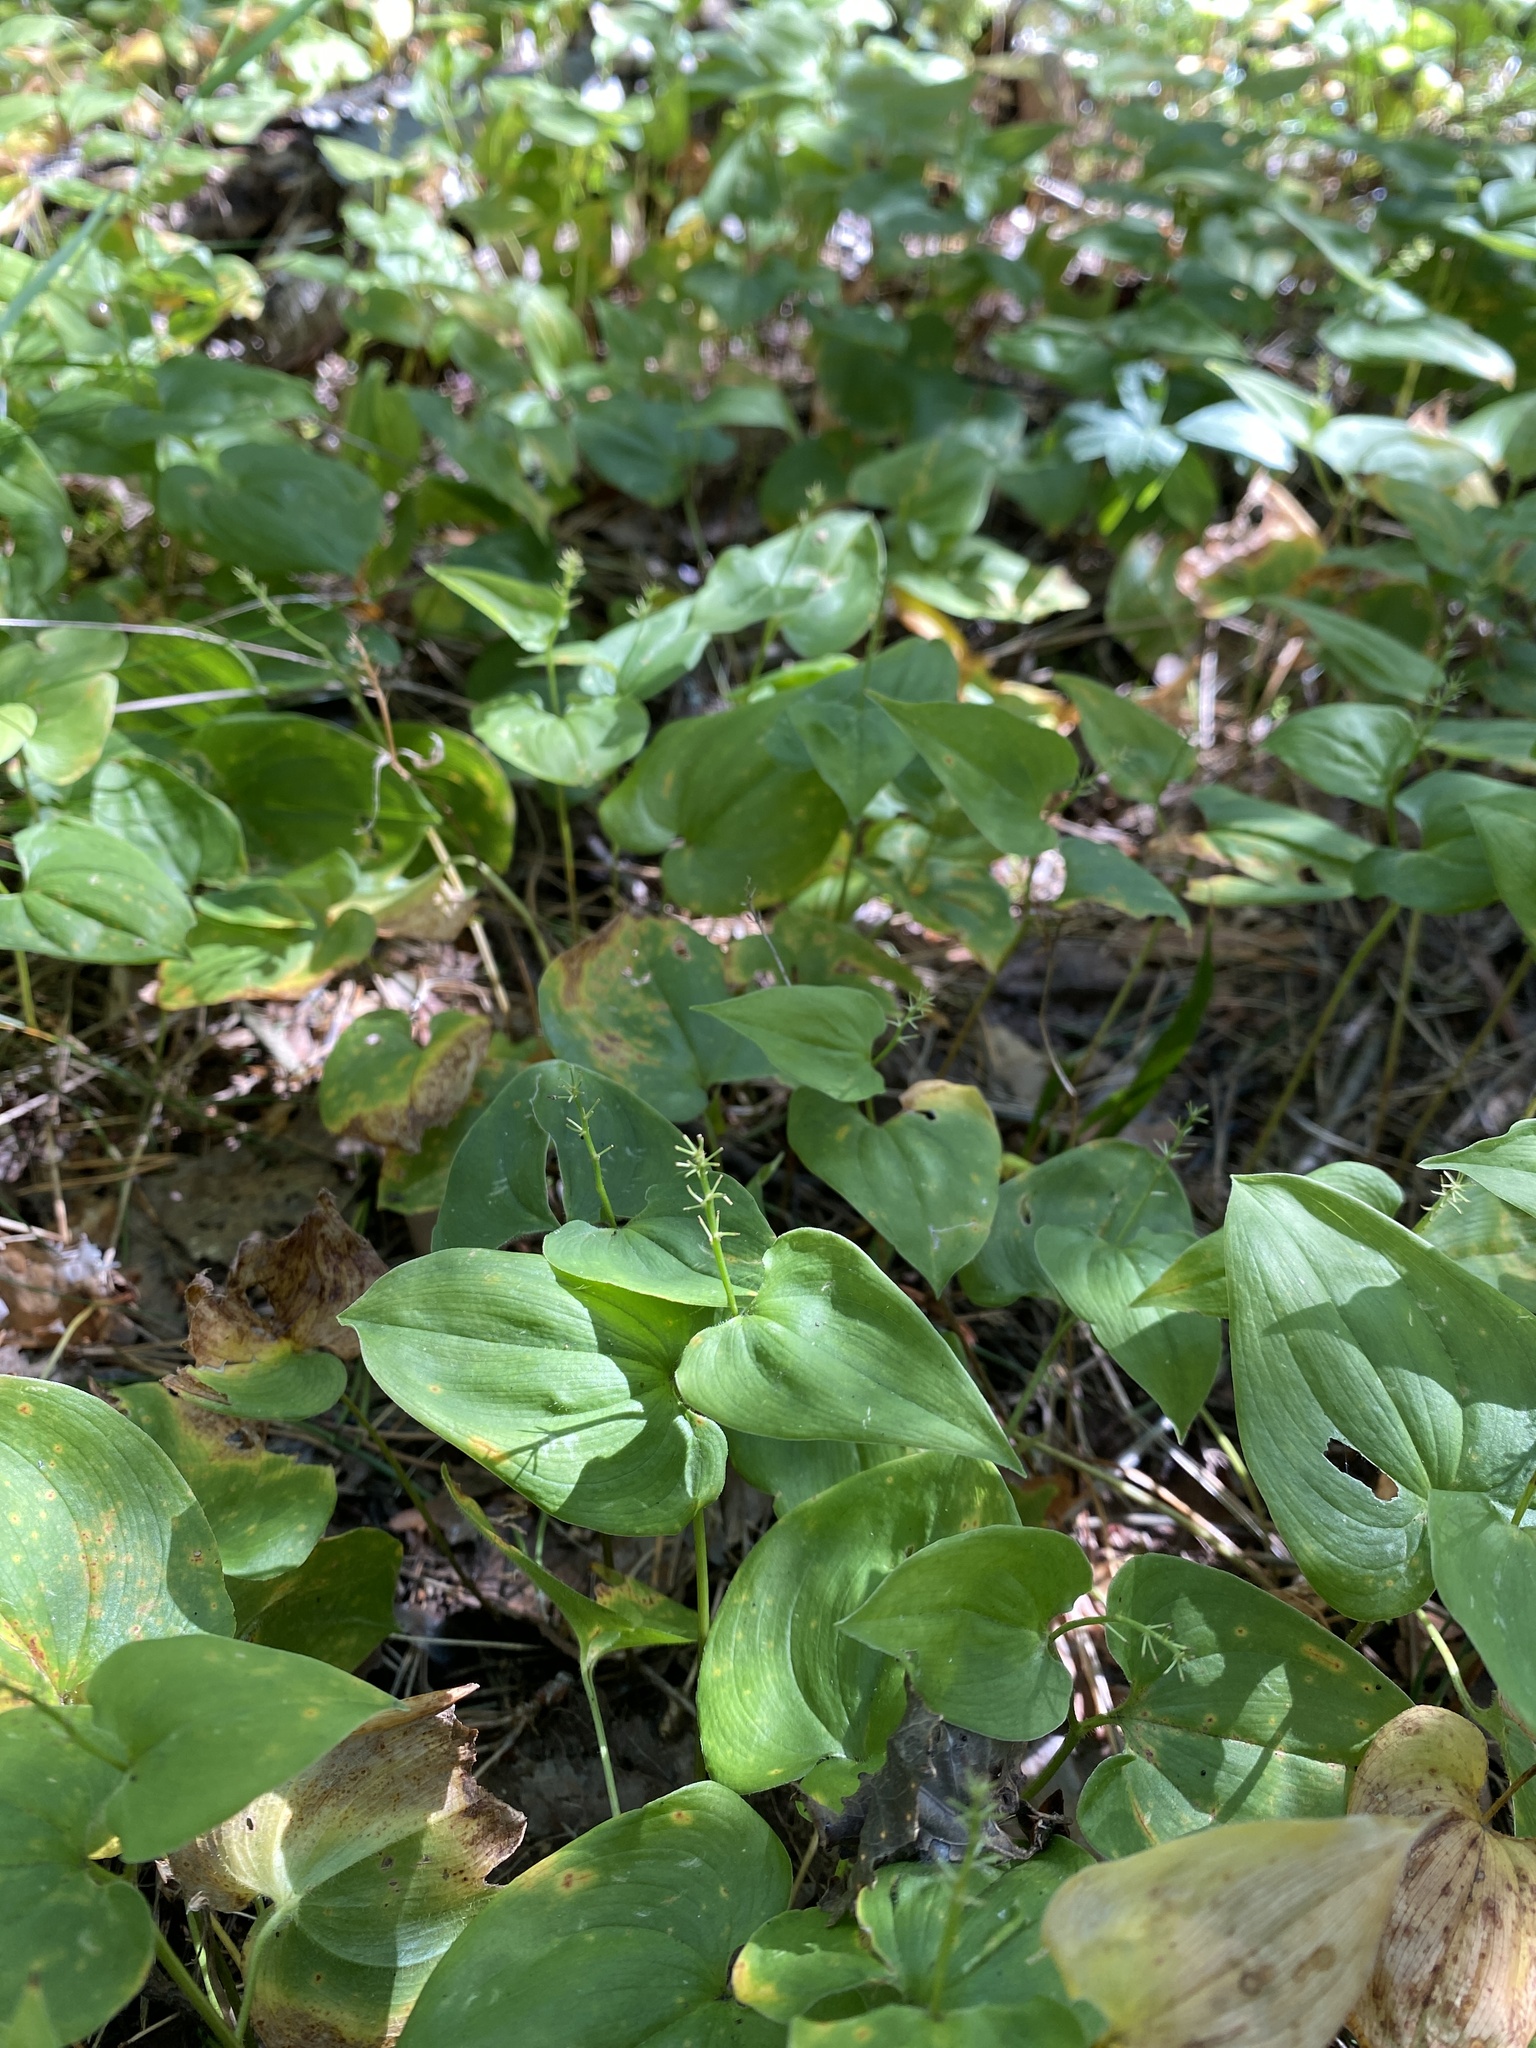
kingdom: Plantae
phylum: Tracheophyta
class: Liliopsida
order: Asparagales
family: Asparagaceae
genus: Maianthemum
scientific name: Maianthemum bifolium
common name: May lily
